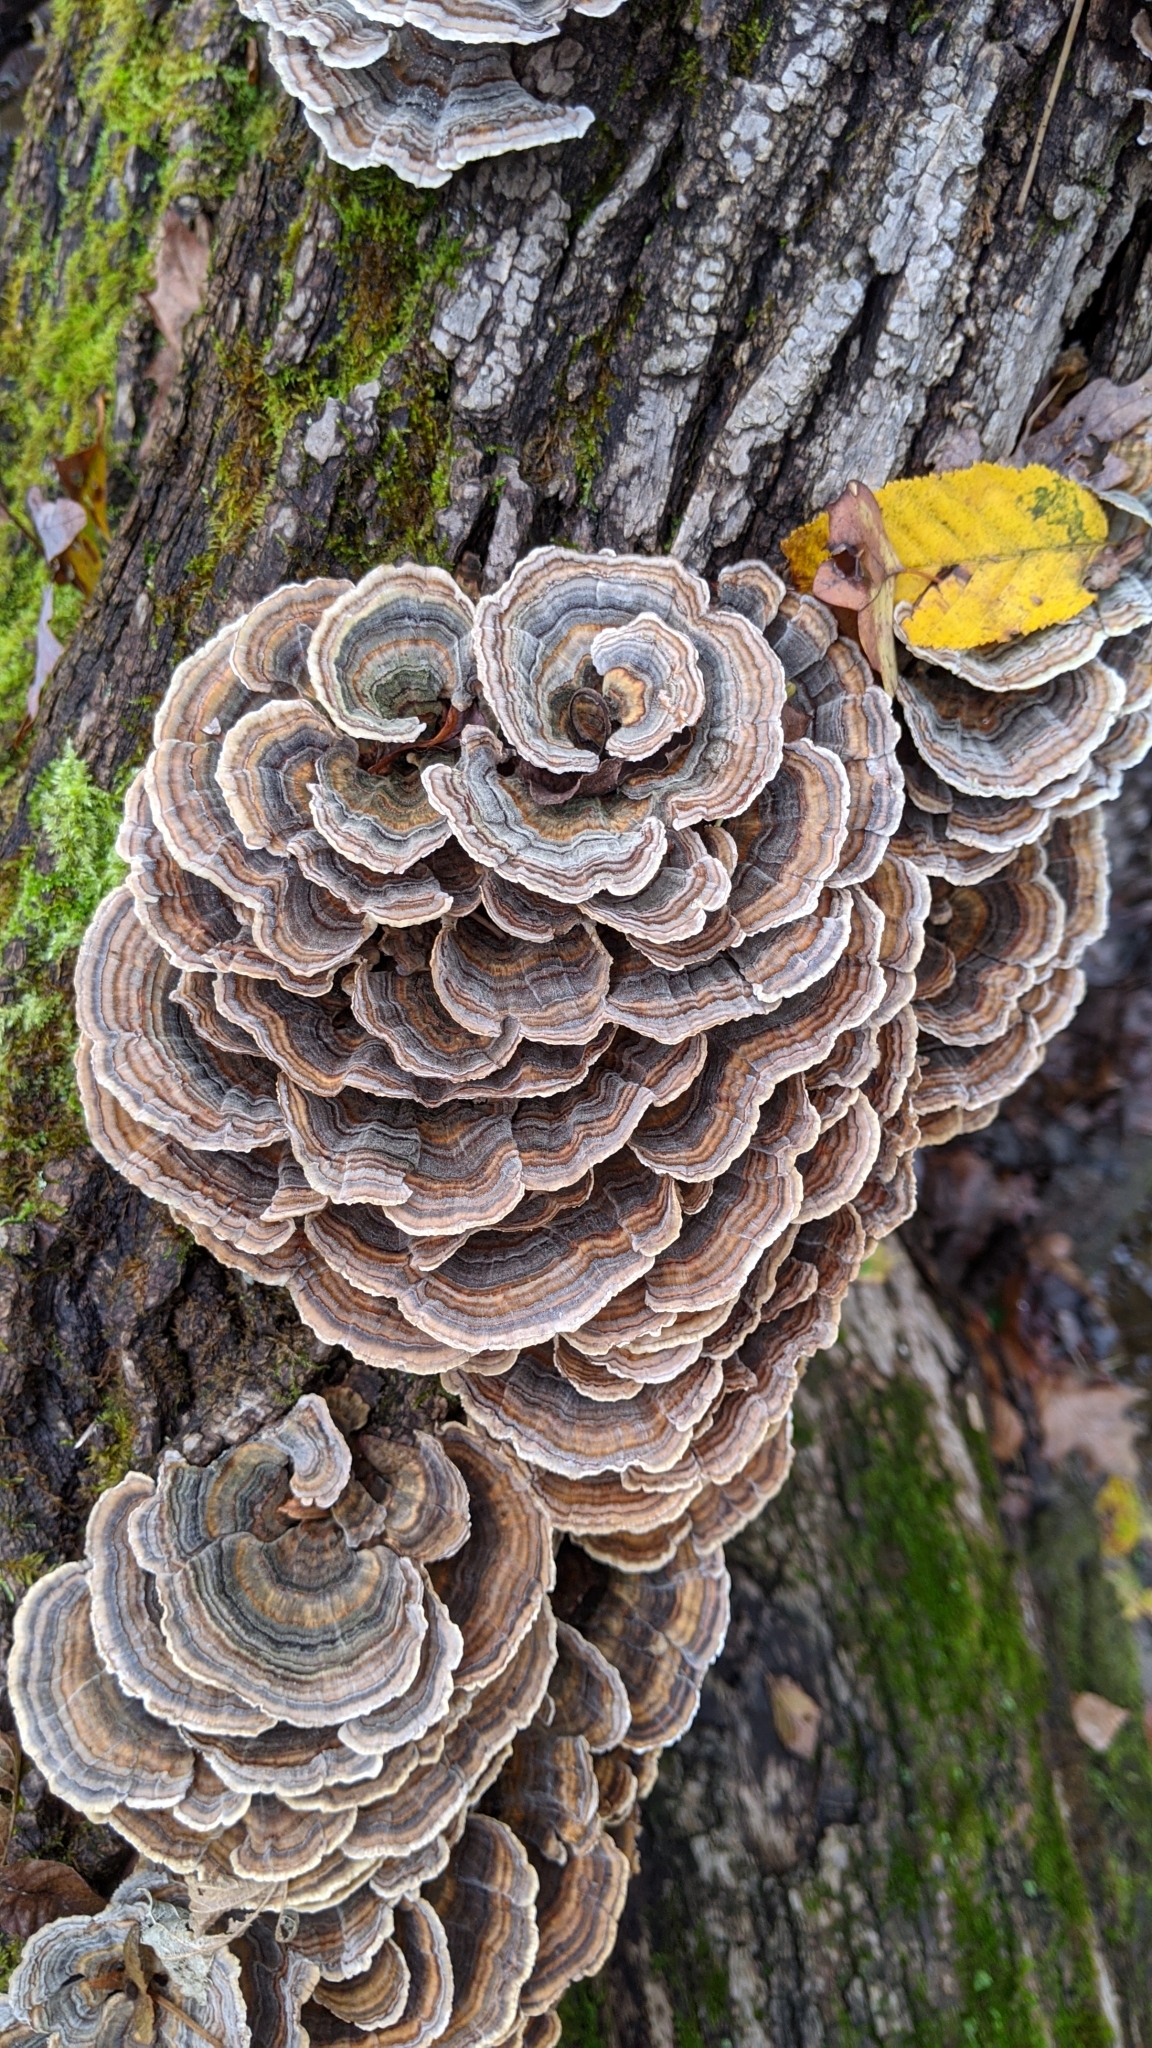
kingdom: Fungi
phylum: Basidiomycota
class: Agaricomycetes
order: Polyporales
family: Polyporaceae
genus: Trametes
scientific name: Trametes versicolor
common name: Turkeytail
